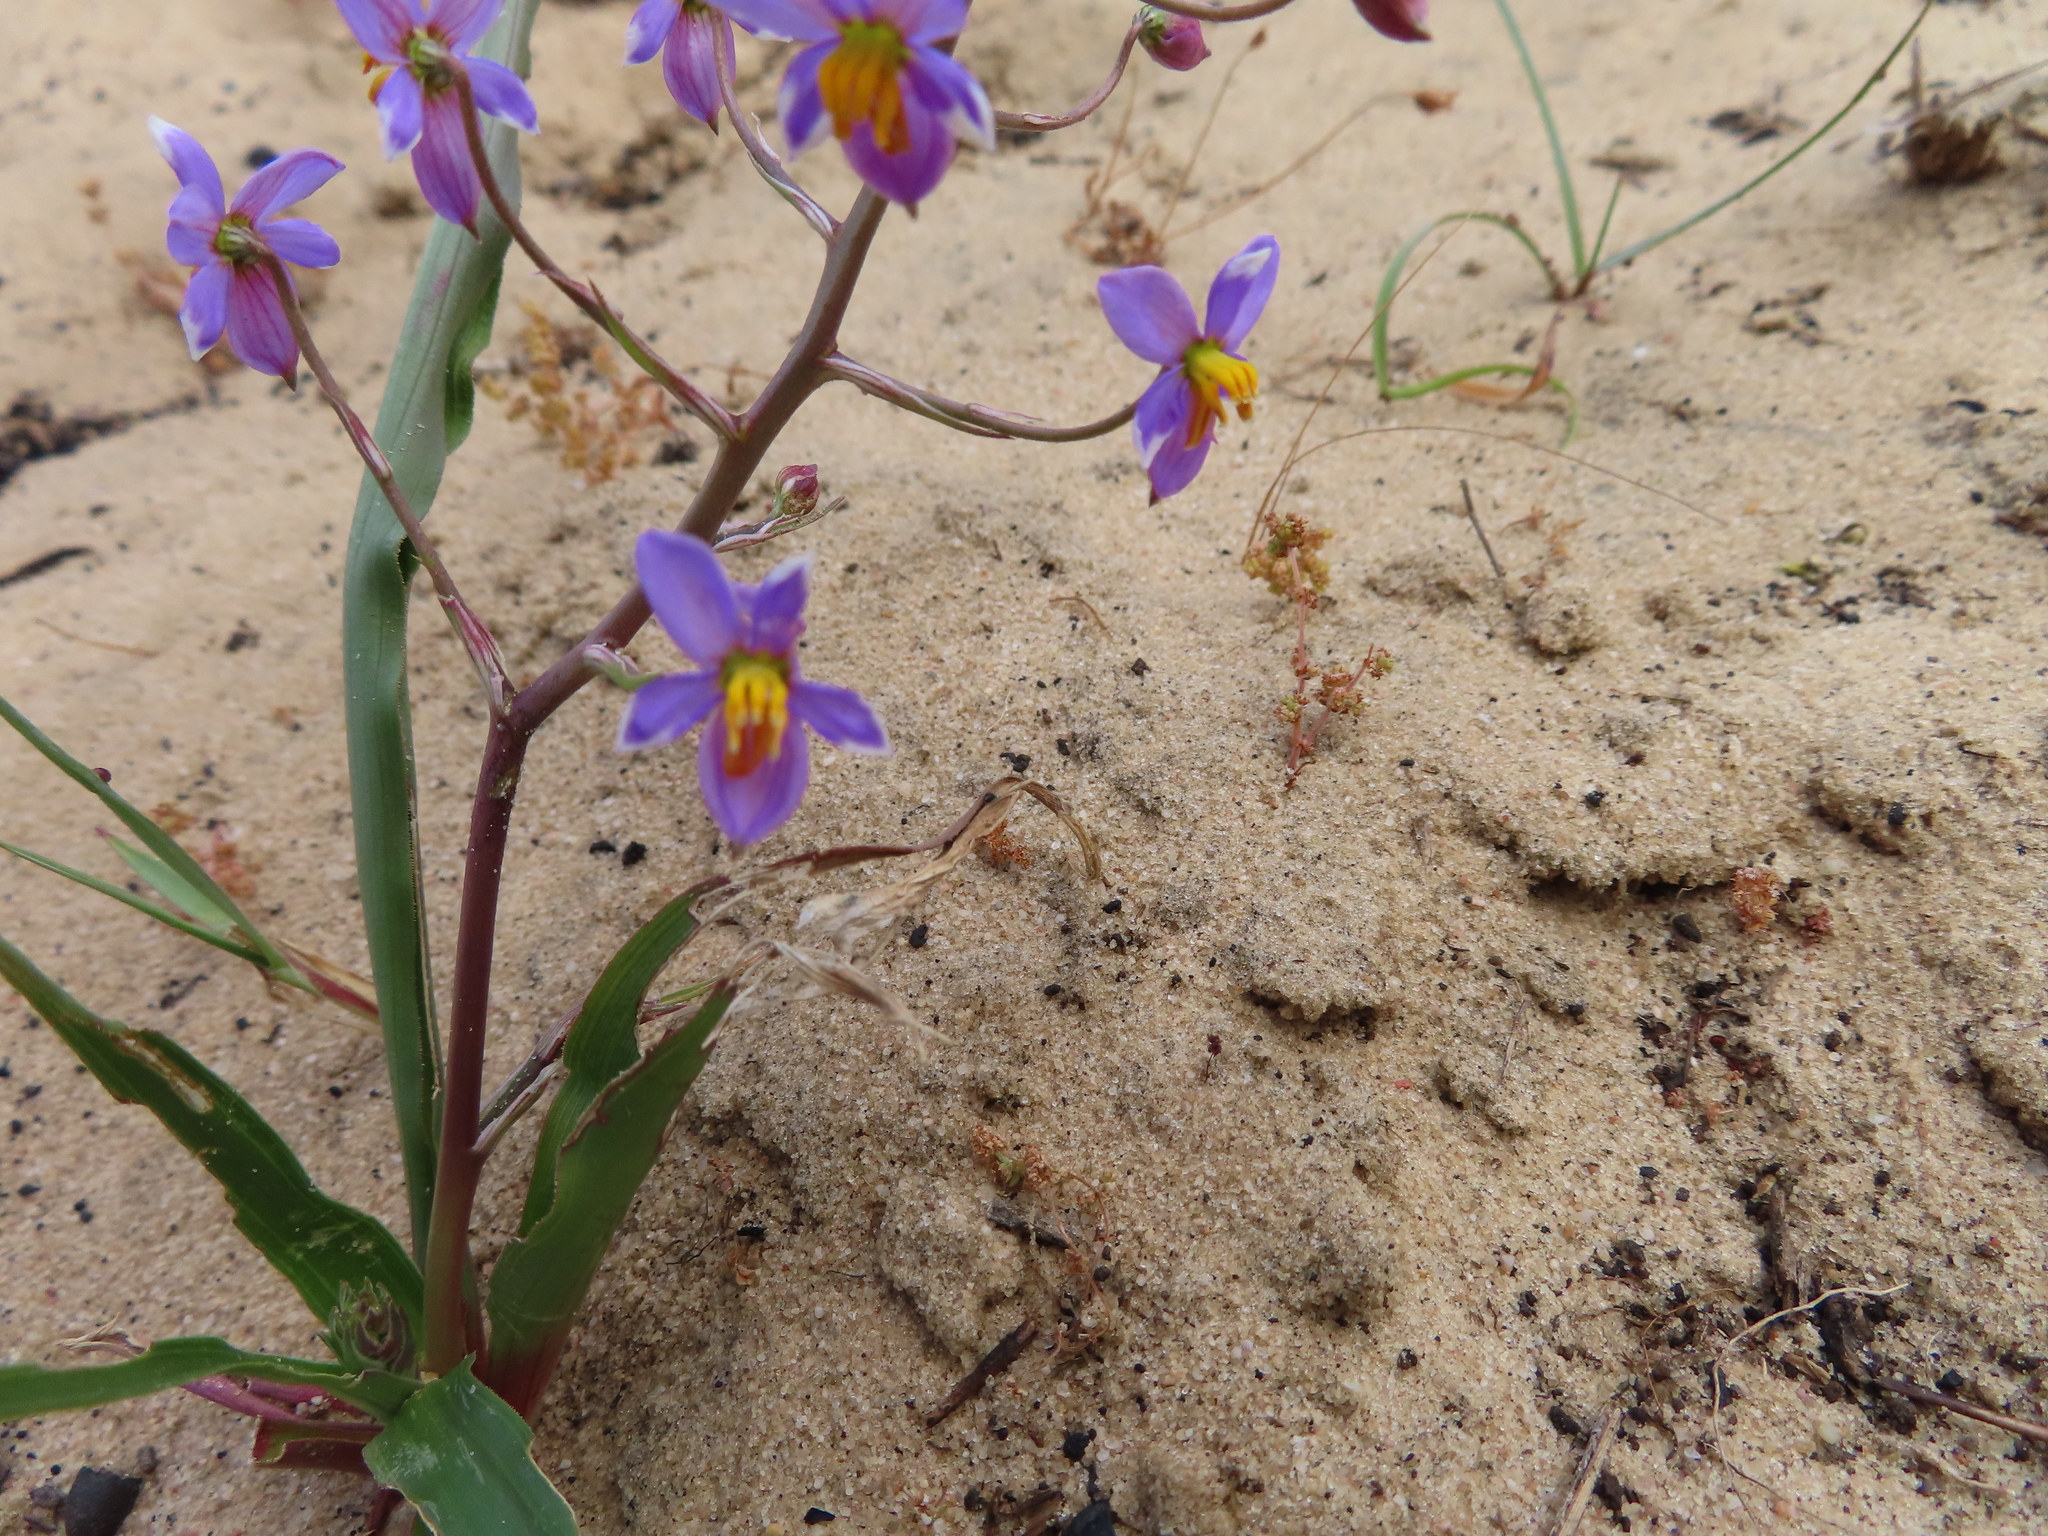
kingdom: Plantae
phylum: Tracheophyta
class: Liliopsida
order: Asparagales
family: Tecophilaeaceae
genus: Cyanella
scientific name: Cyanella hyacinthoides
